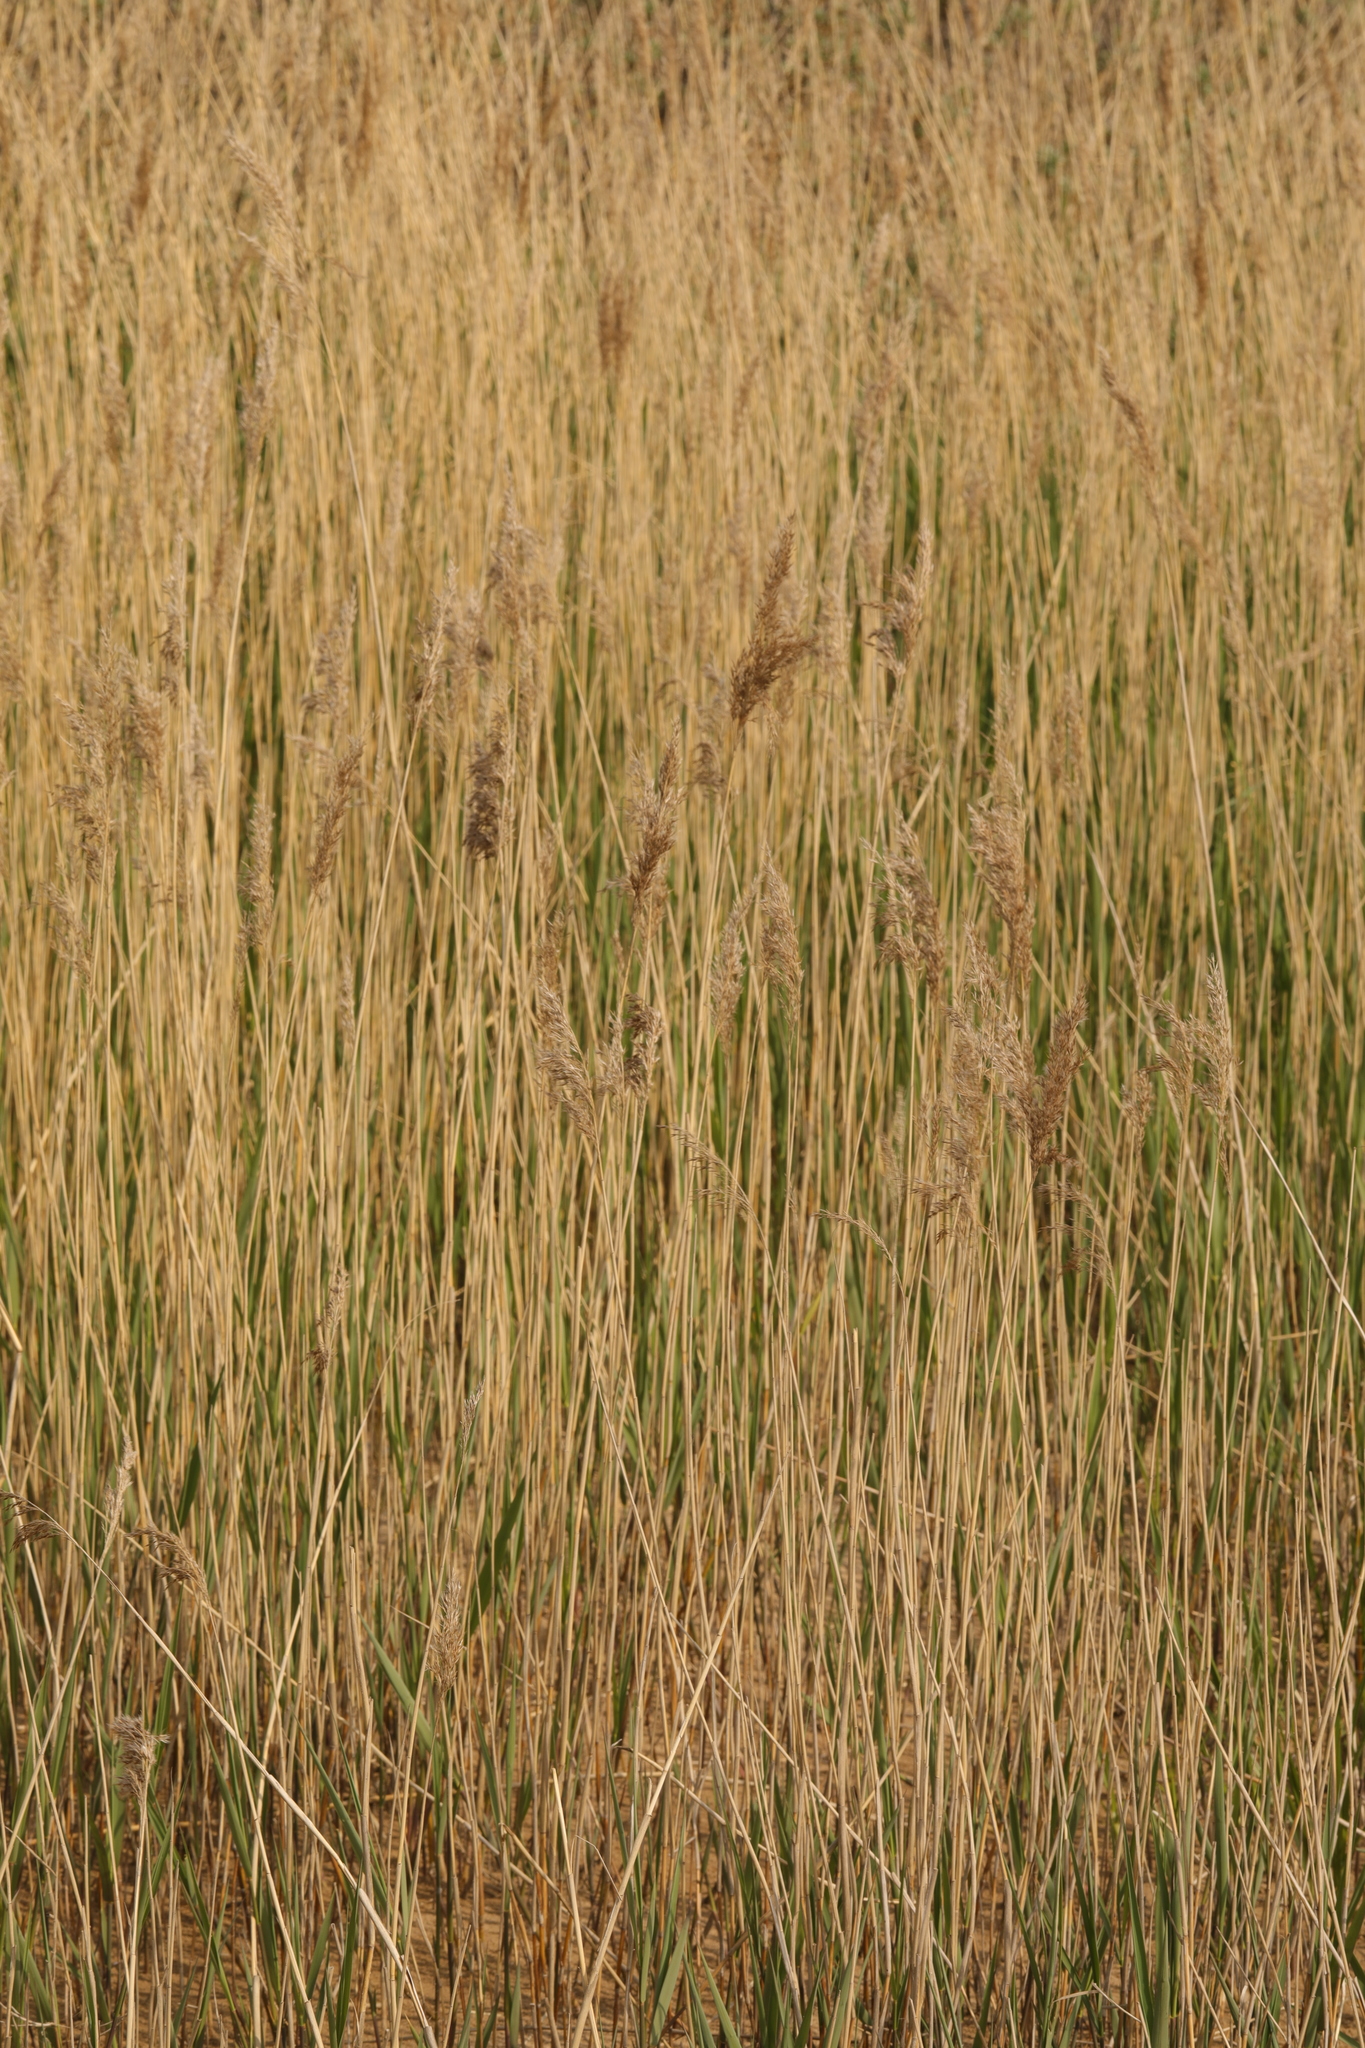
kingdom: Plantae
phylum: Tracheophyta
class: Liliopsida
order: Poales
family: Poaceae
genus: Phragmites
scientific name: Phragmites australis
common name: Common reed
